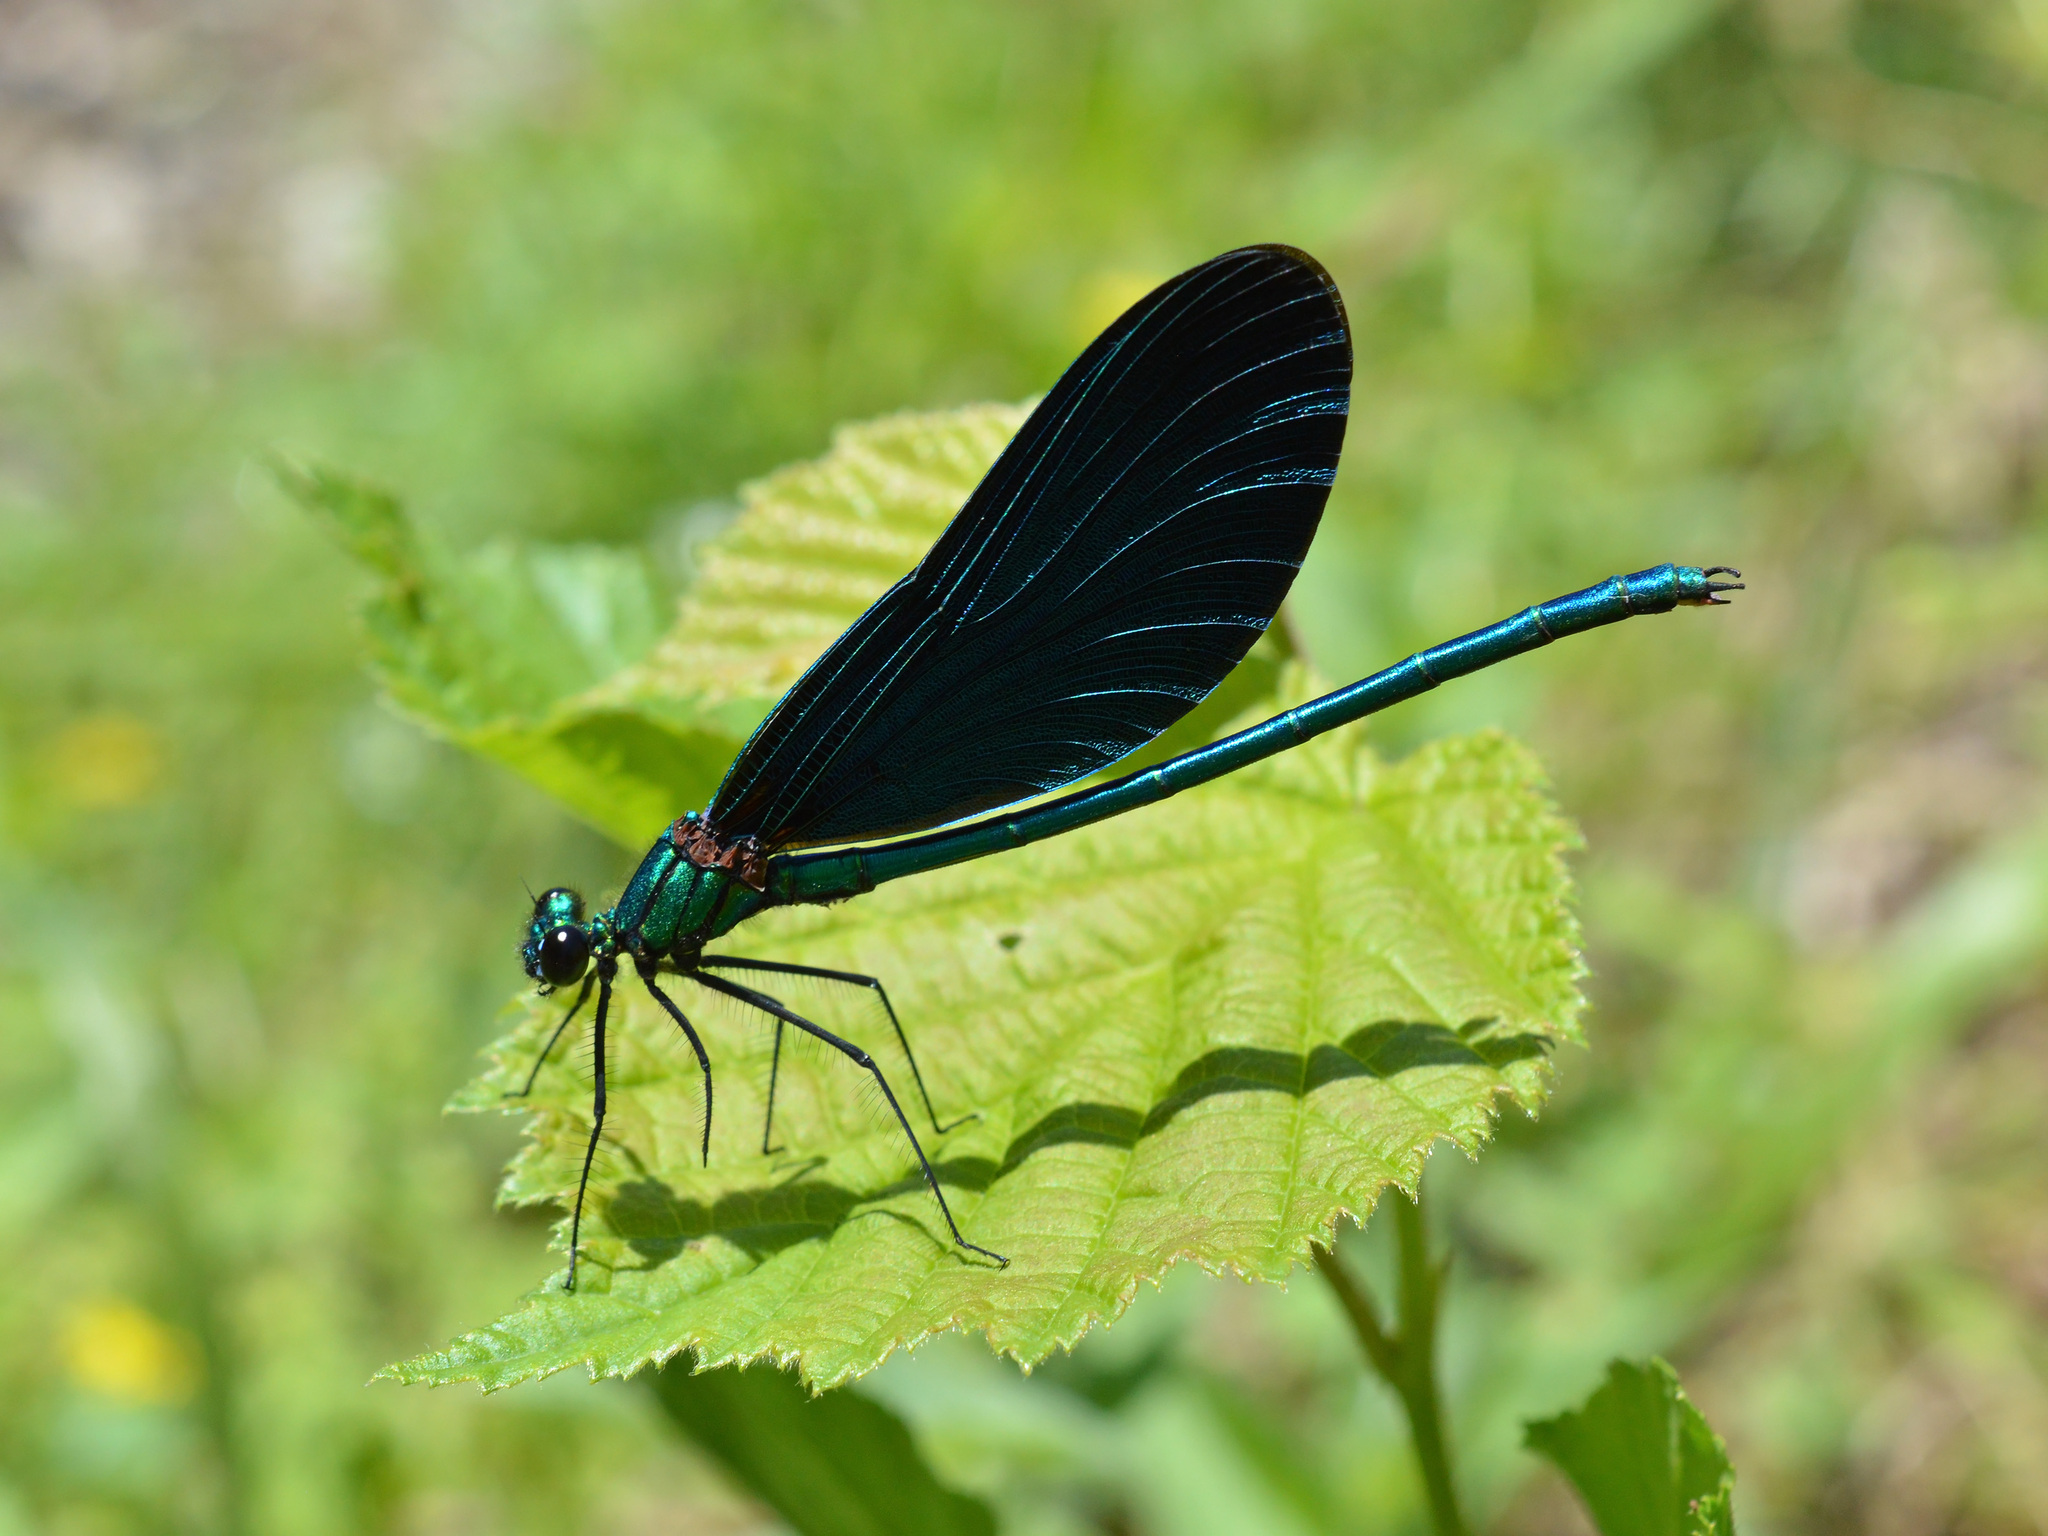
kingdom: Animalia
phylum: Arthropoda
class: Insecta
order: Odonata
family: Calopterygidae
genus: Calopteryx
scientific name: Calopteryx virgo
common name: Beautiful demoiselle
